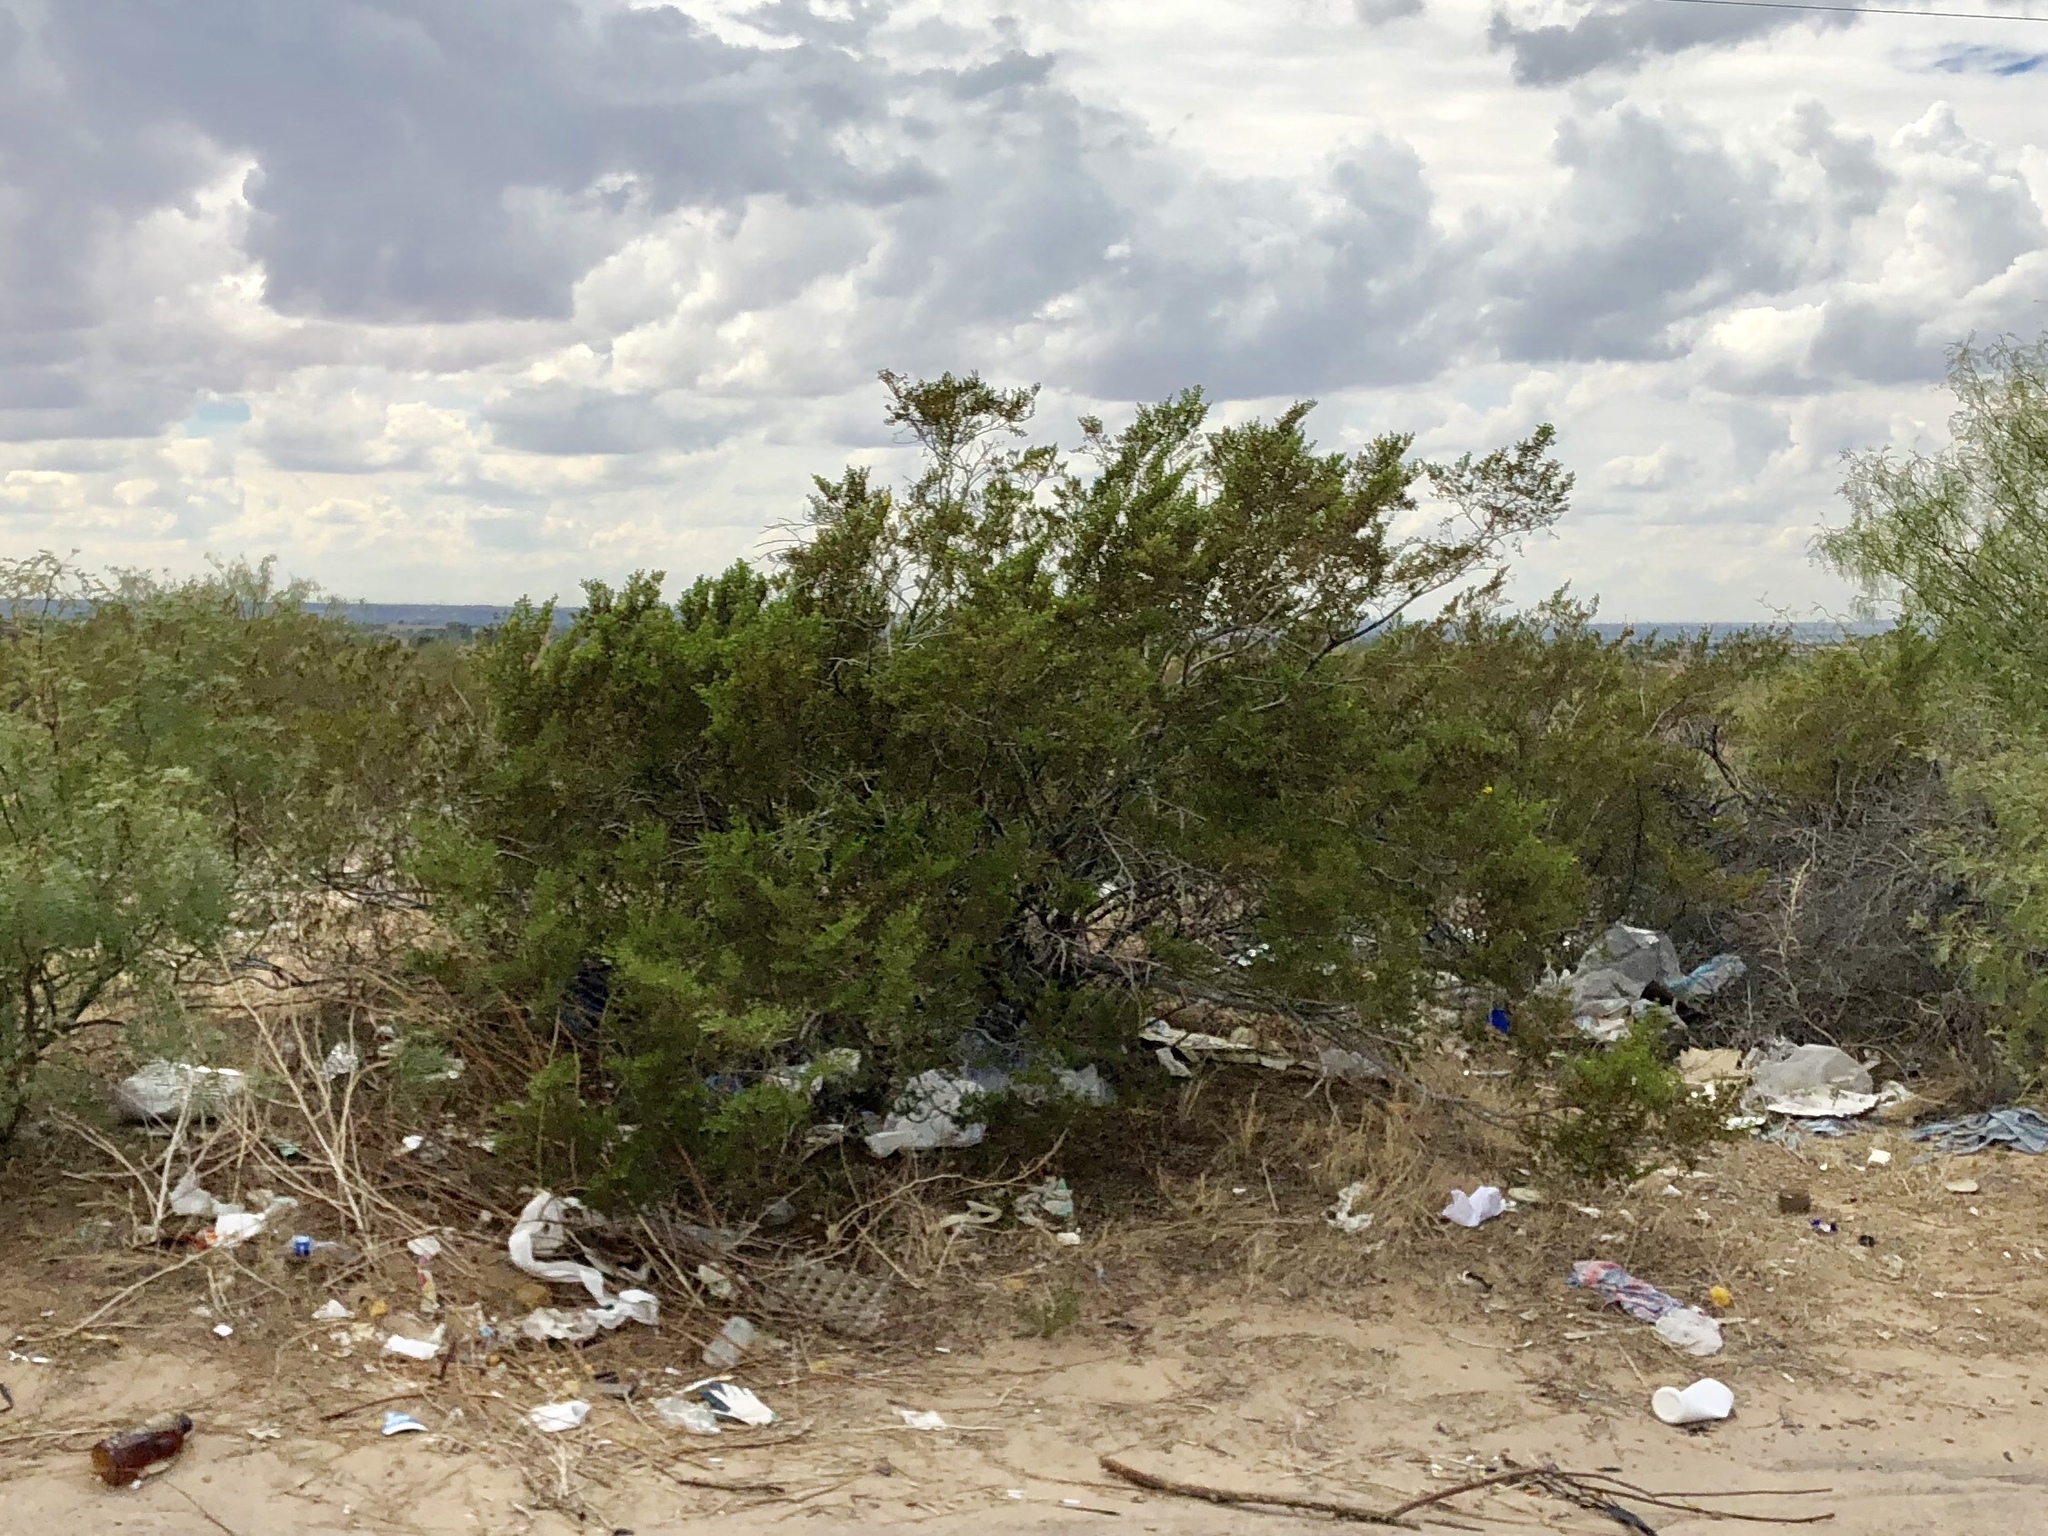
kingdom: Plantae
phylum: Tracheophyta
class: Magnoliopsida
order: Zygophyllales
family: Zygophyllaceae
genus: Larrea
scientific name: Larrea tridentata
